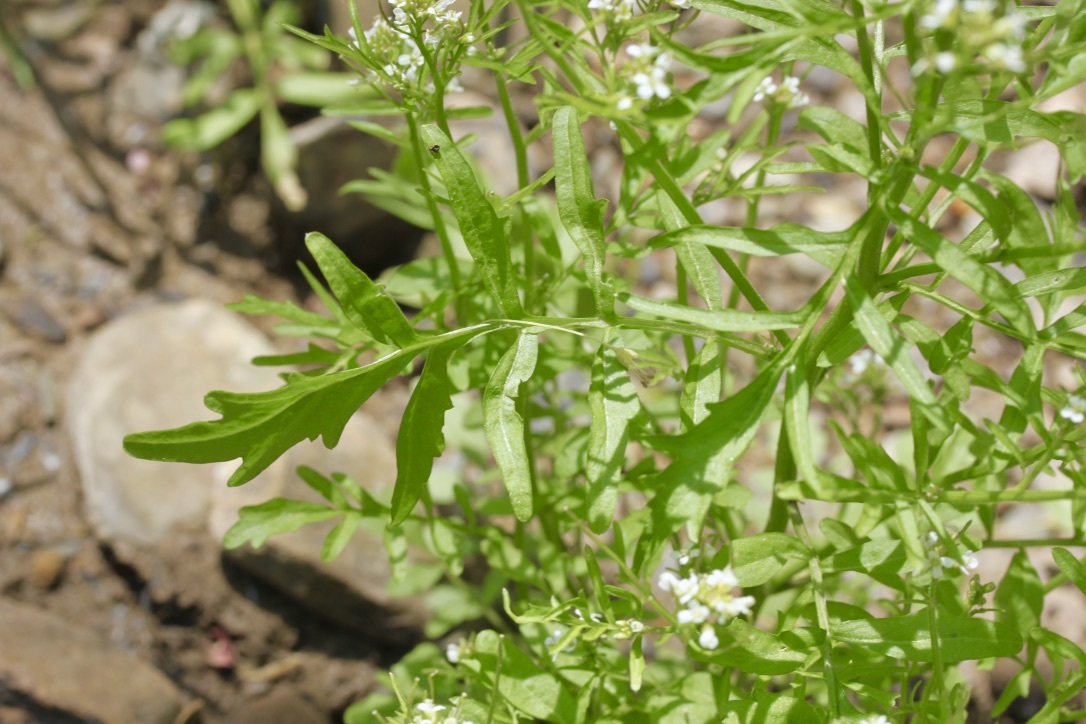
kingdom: Plantae
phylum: Tracheophyta
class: Magnoliopsida
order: Brassicales
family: Brassicaceae
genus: Cardamine
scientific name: Cardamine pensylvanica
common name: Pennsylvania bittercress
